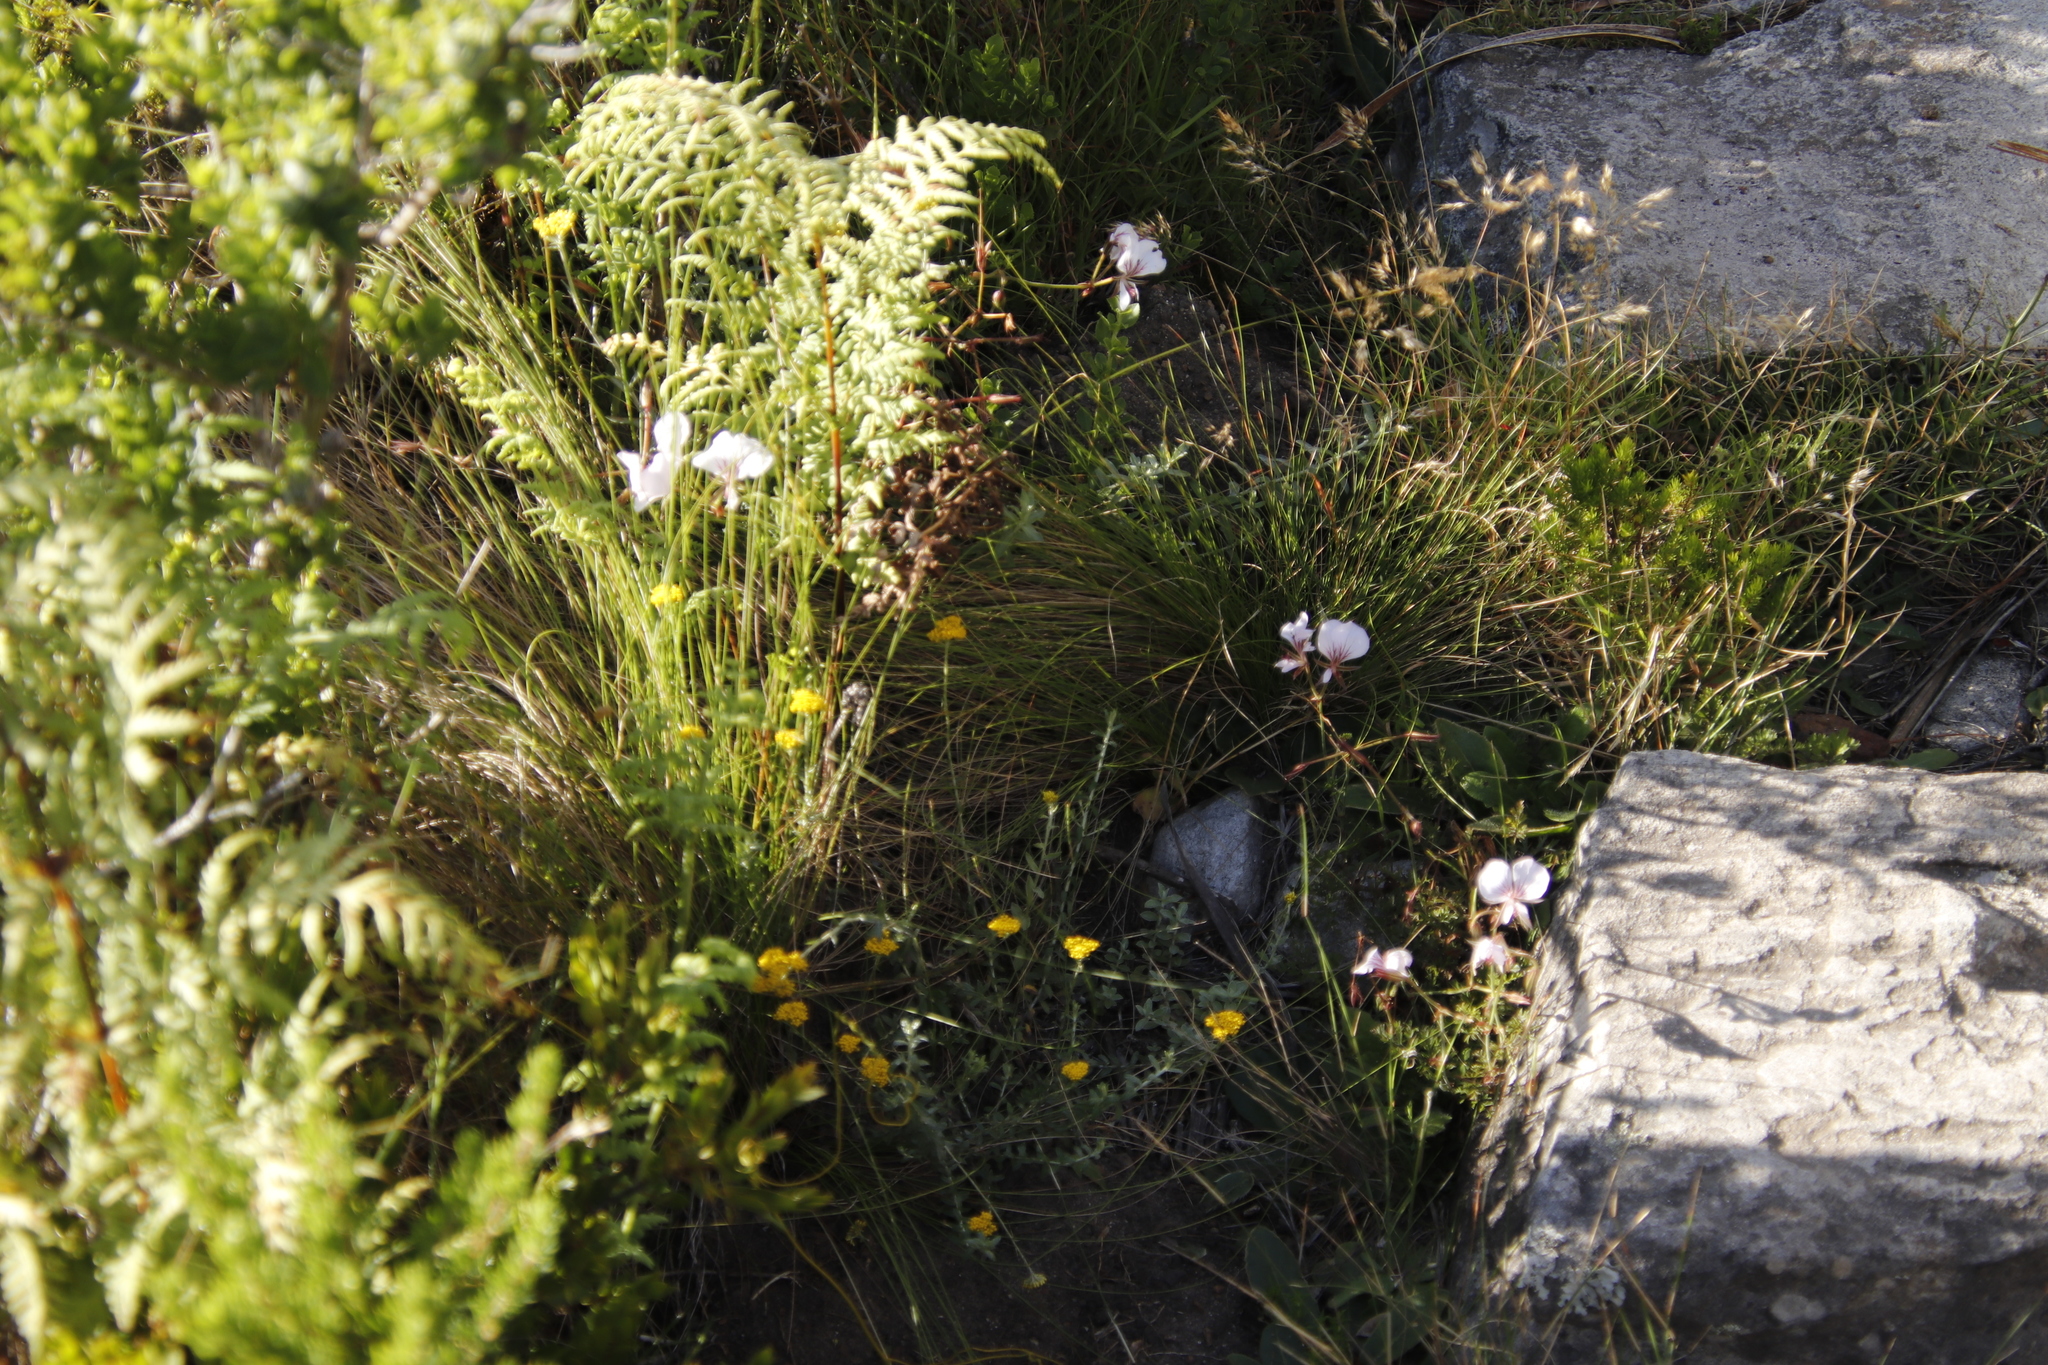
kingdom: Plantae
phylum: Tracheophyta
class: Polypodiopsida
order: Polypodiales
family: Dennstaedtiaceae
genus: Pteridium
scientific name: Pteridium aquilinum
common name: Bracken
